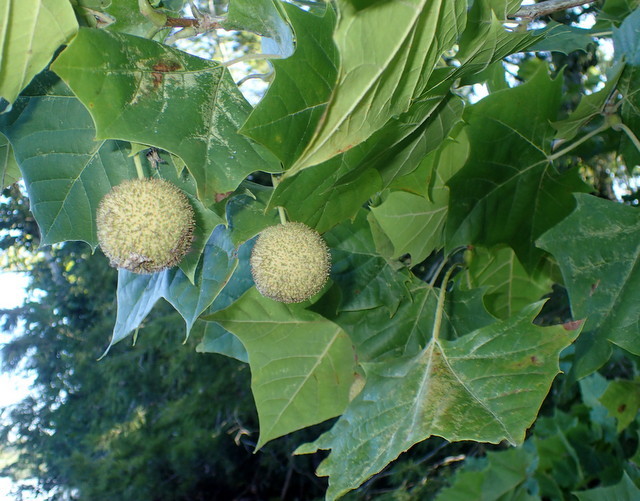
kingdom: Plantae
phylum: Tracheophyta
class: Magnoliopsida
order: Proteales
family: Platanaceae
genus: Platanus
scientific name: Platanus occidentalis
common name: American sycamore
